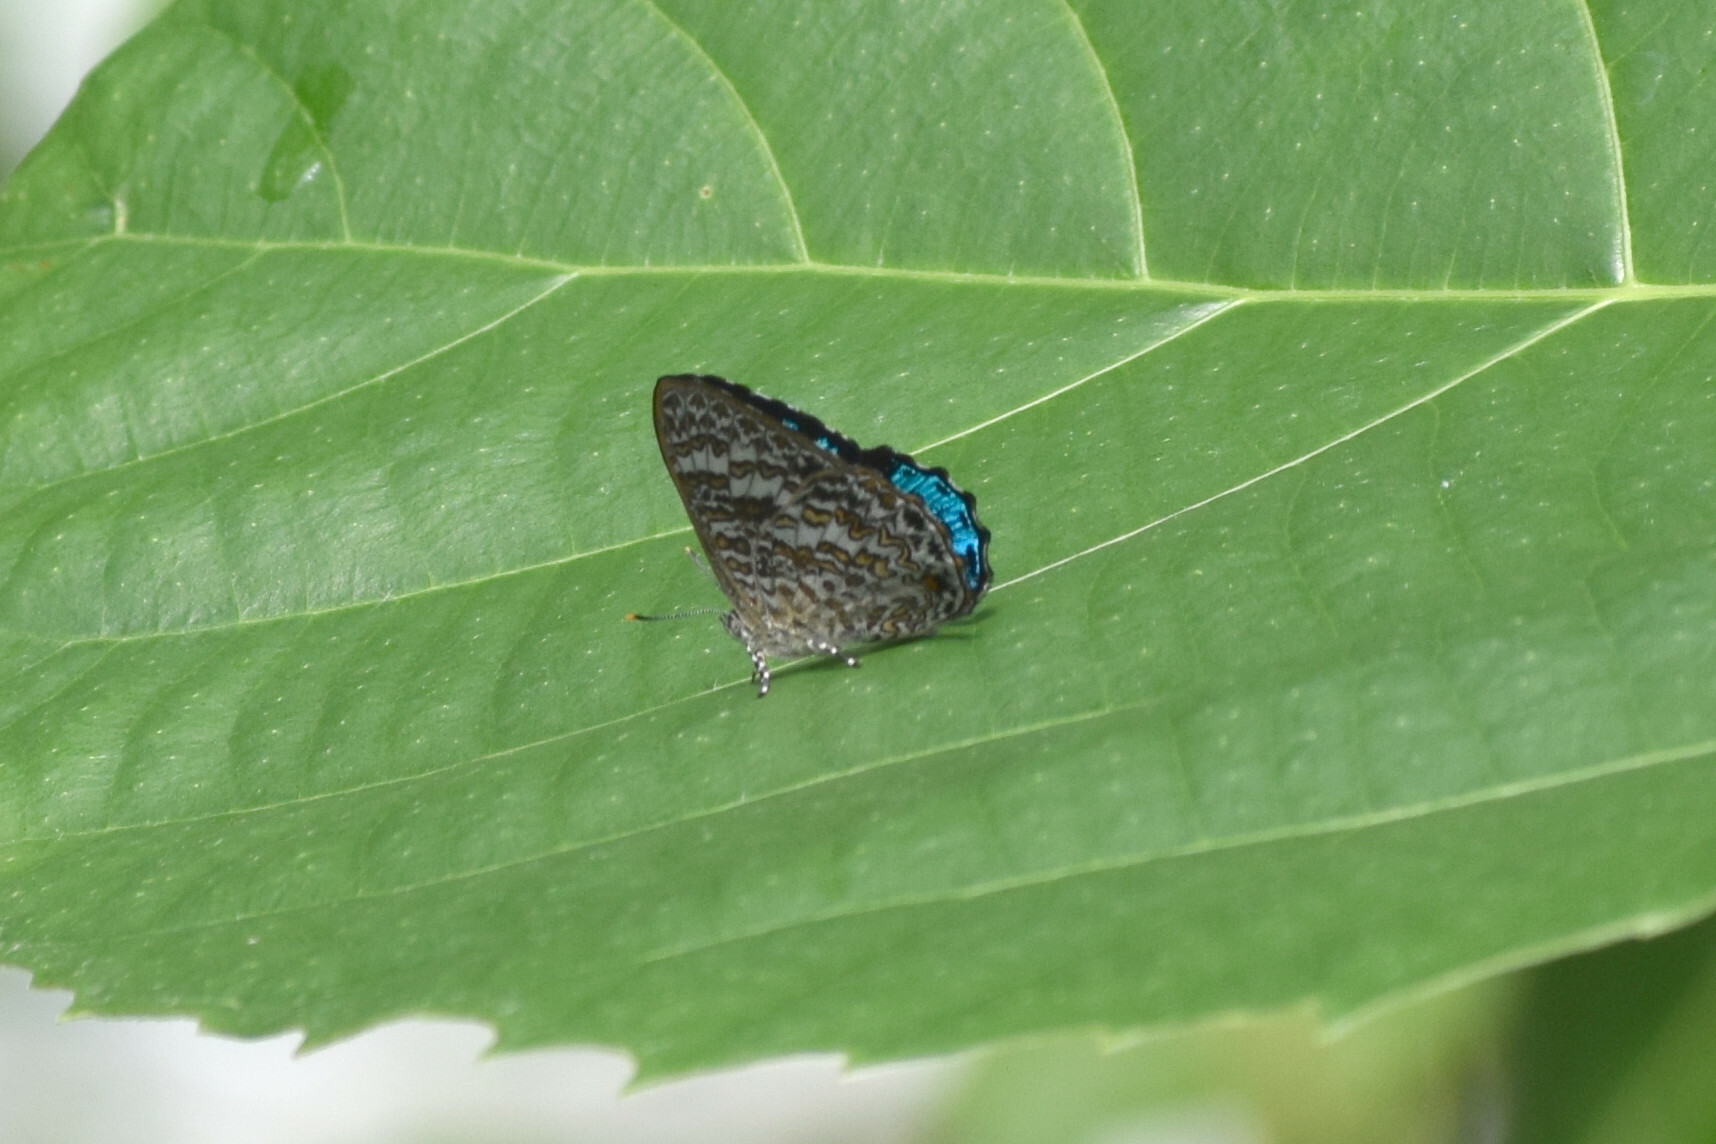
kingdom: Animalia
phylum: Arthropoda
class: Insecta
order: Lepidoptera
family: Lycaenidae
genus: Poritia
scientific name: Poritia hewitsoni
